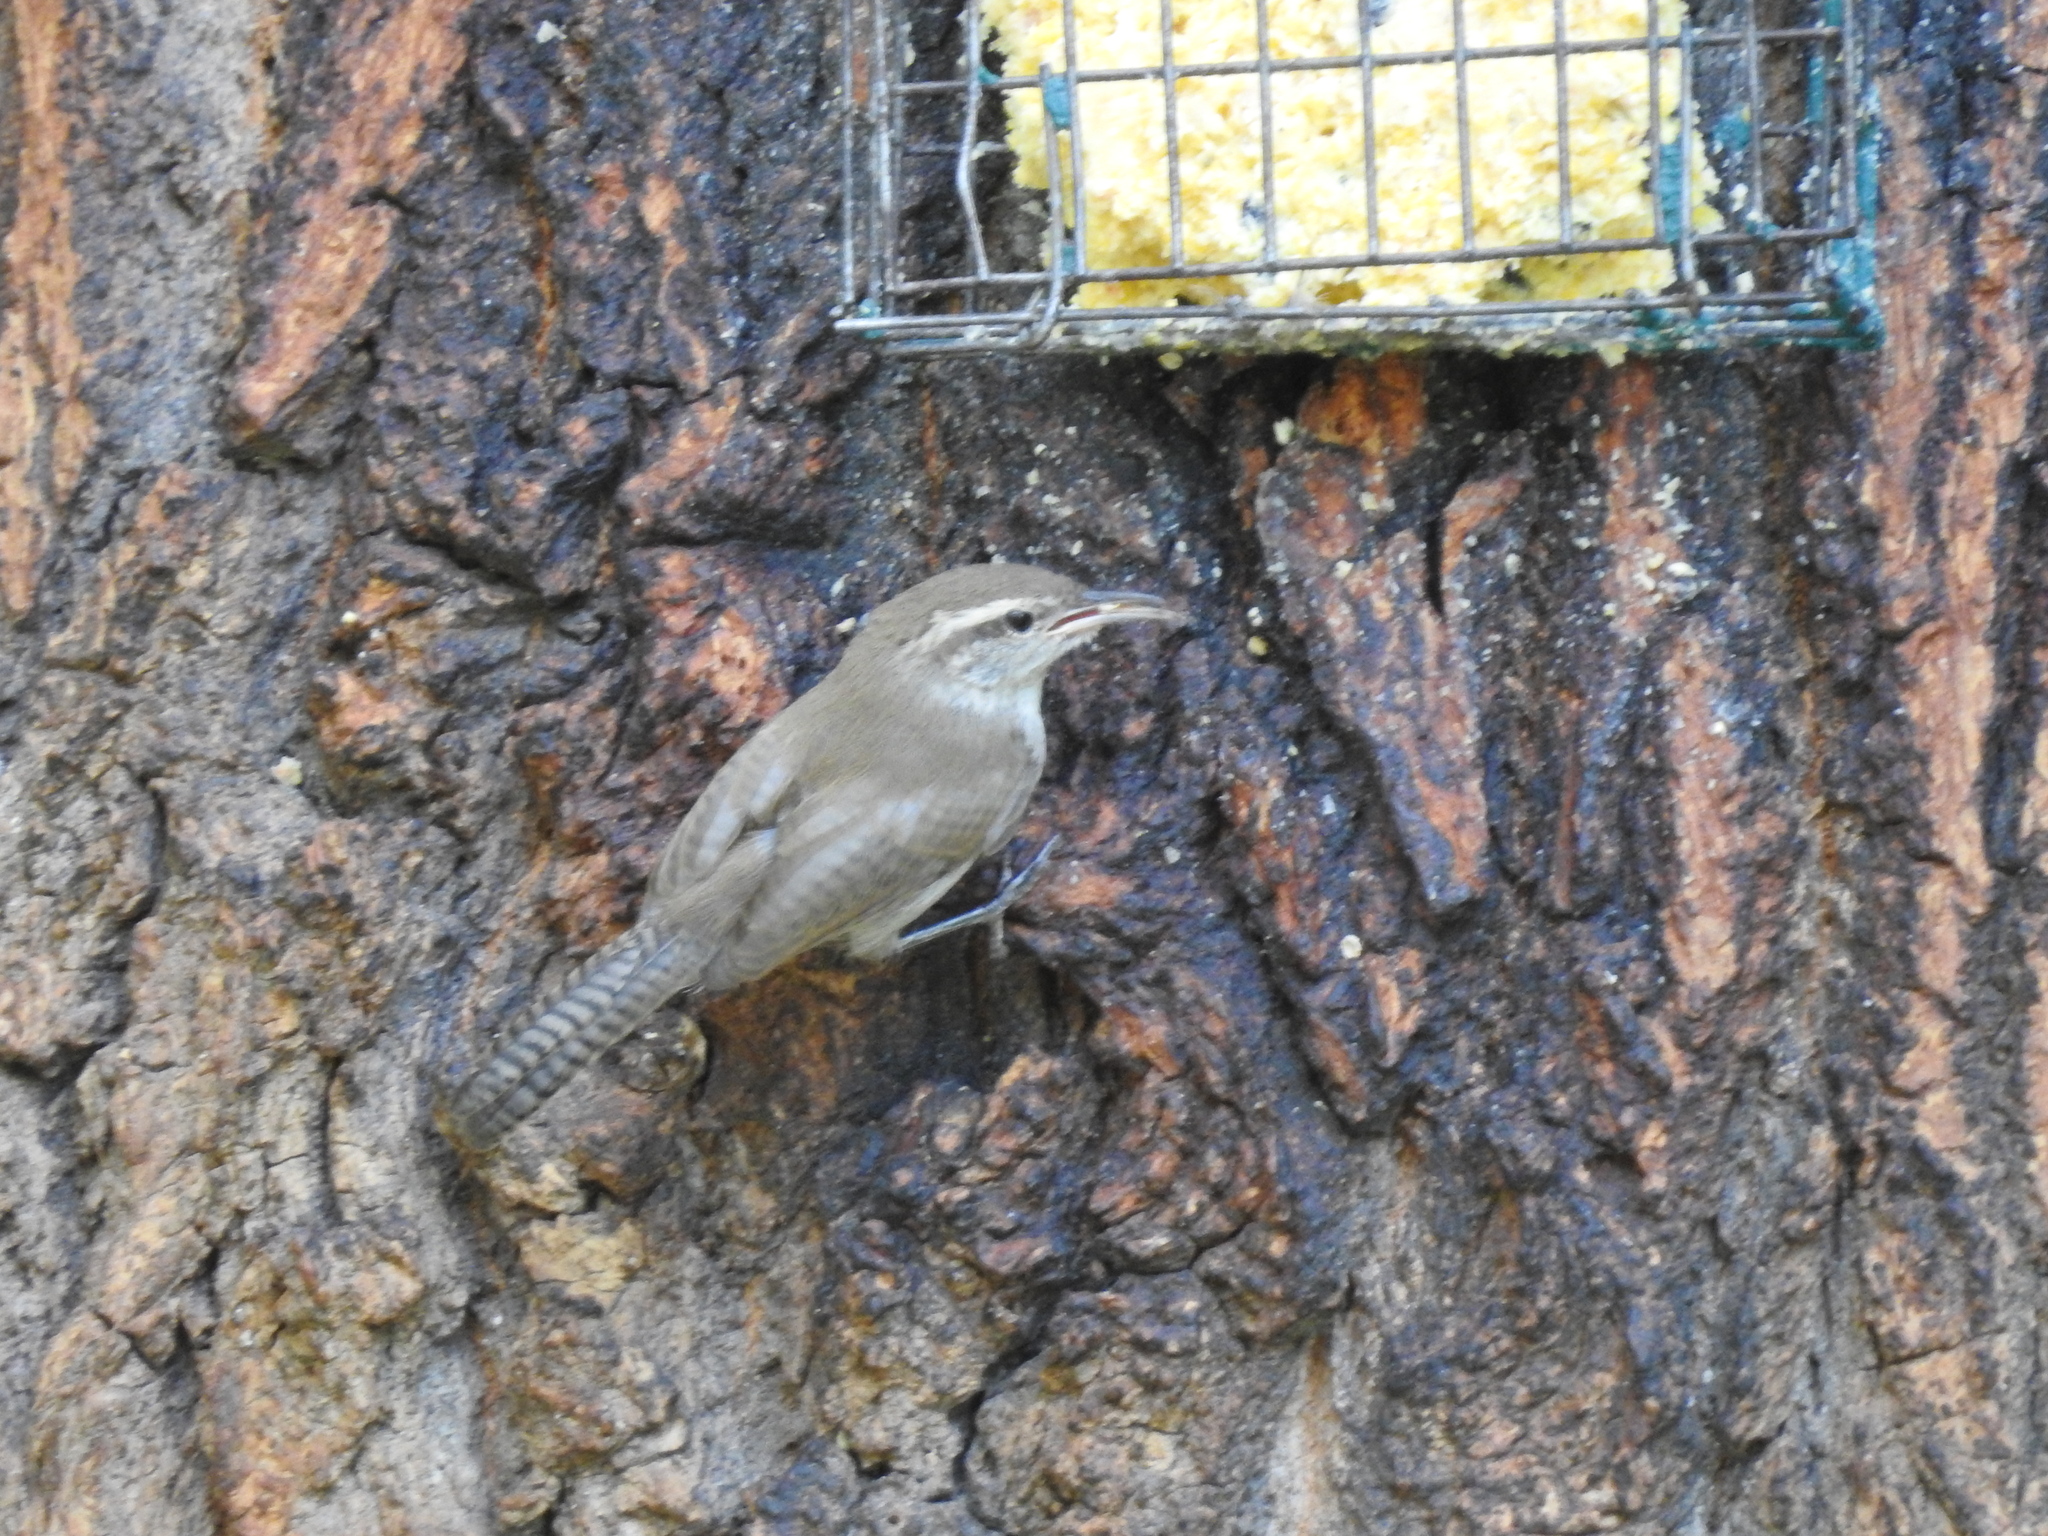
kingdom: Animalia
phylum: Chordata
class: Aves
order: Passeriformes
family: Troglodytidae
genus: Thryomanes
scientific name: Thryomanes bewickii
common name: Bewick's wren
